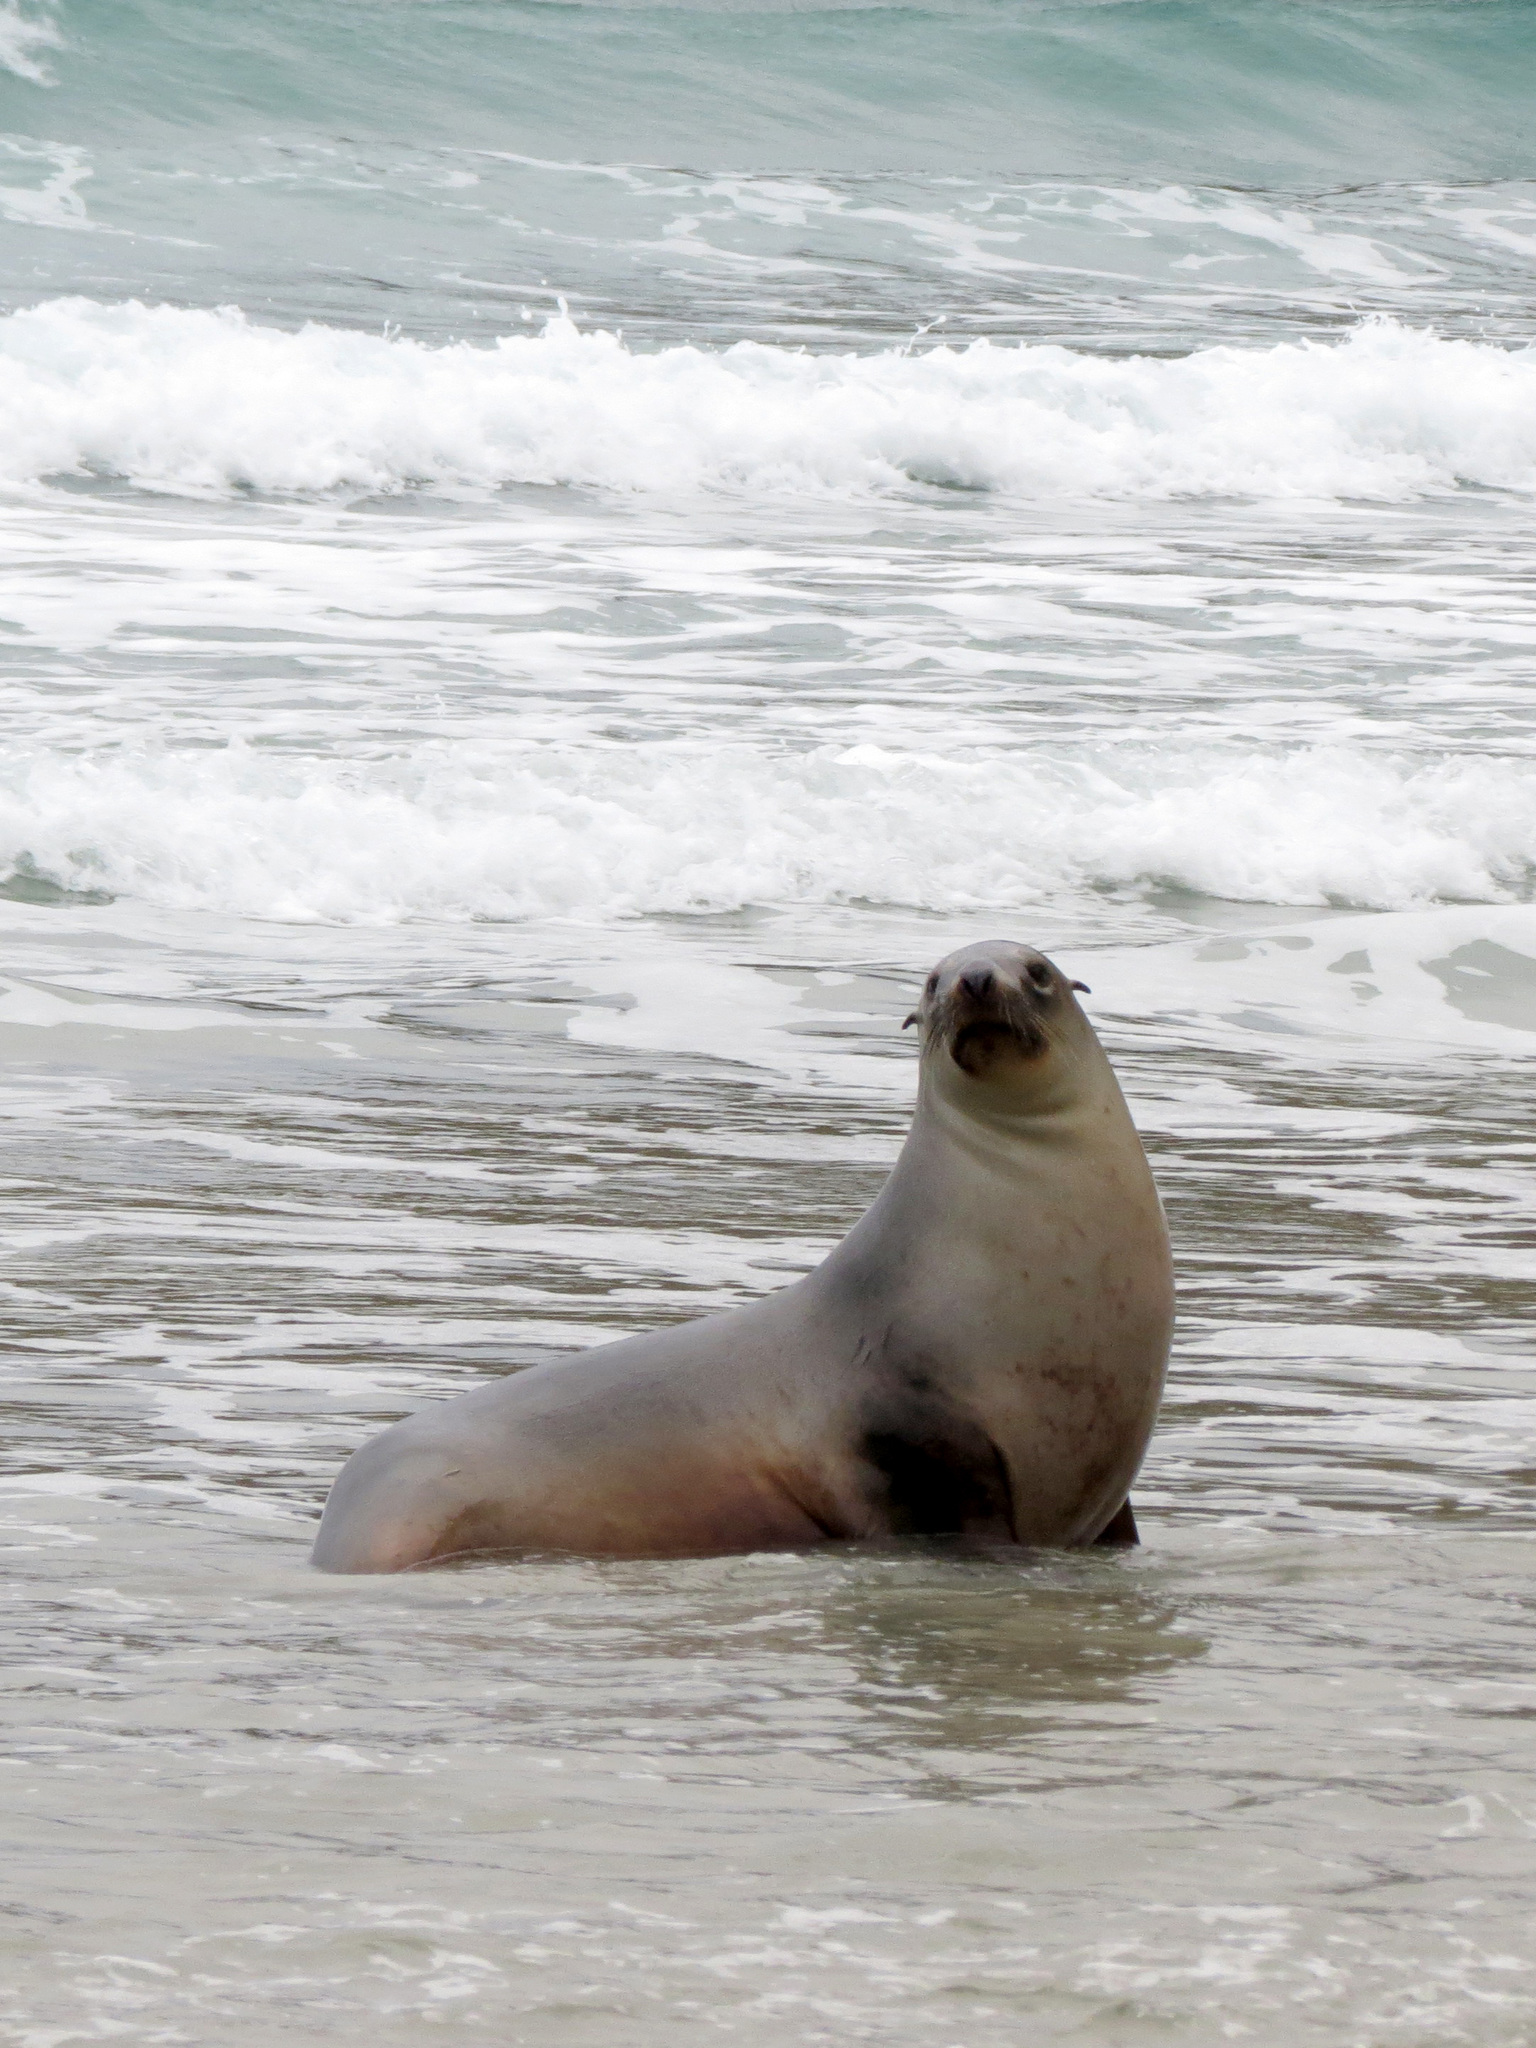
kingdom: Animalia
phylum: Chordata
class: Mammalia
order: Carnivora
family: Otariidae
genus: Phocarctos
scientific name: Phocarctos hookeri
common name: New zealand sea lion
